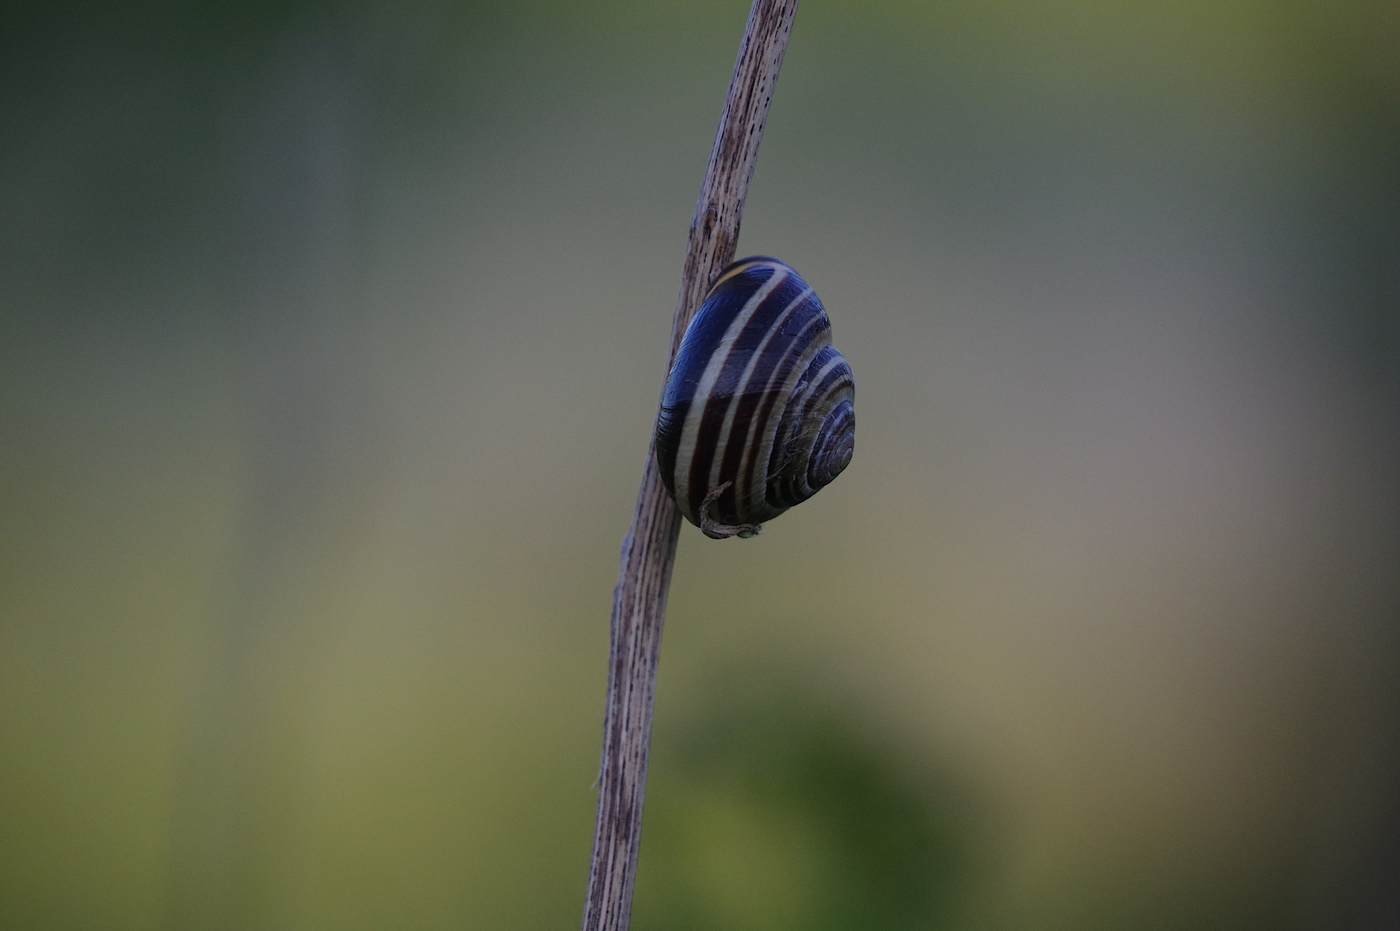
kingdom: Animalia
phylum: Mollusca
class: Gastropoda
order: Stylommatophora
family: Helicidae
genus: Cepaea
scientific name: Cepaea nemoralis
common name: Grovesnail
